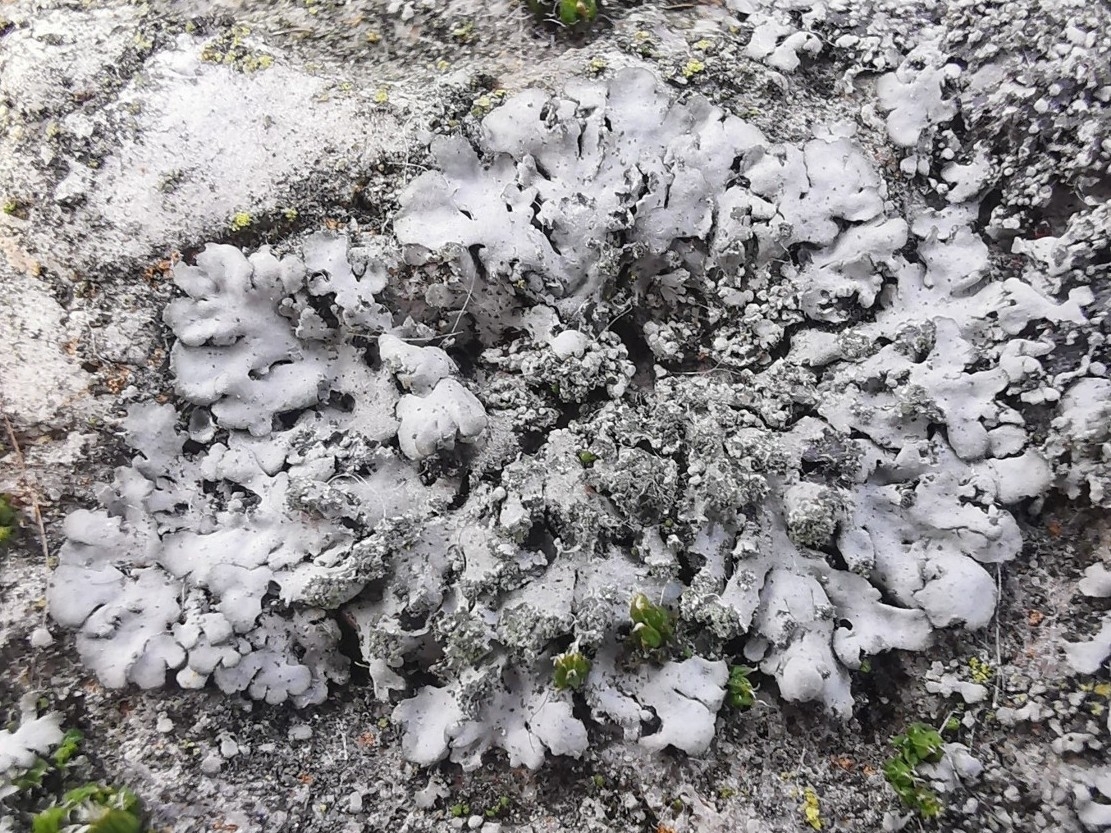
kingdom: Fungi
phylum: Ascomycota
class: Lecanoromycetes
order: Caliciales
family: Physciaceae
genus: Phaeophyscia
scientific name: Phaeophyscia orbicularis
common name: Mealy shadow lichen
